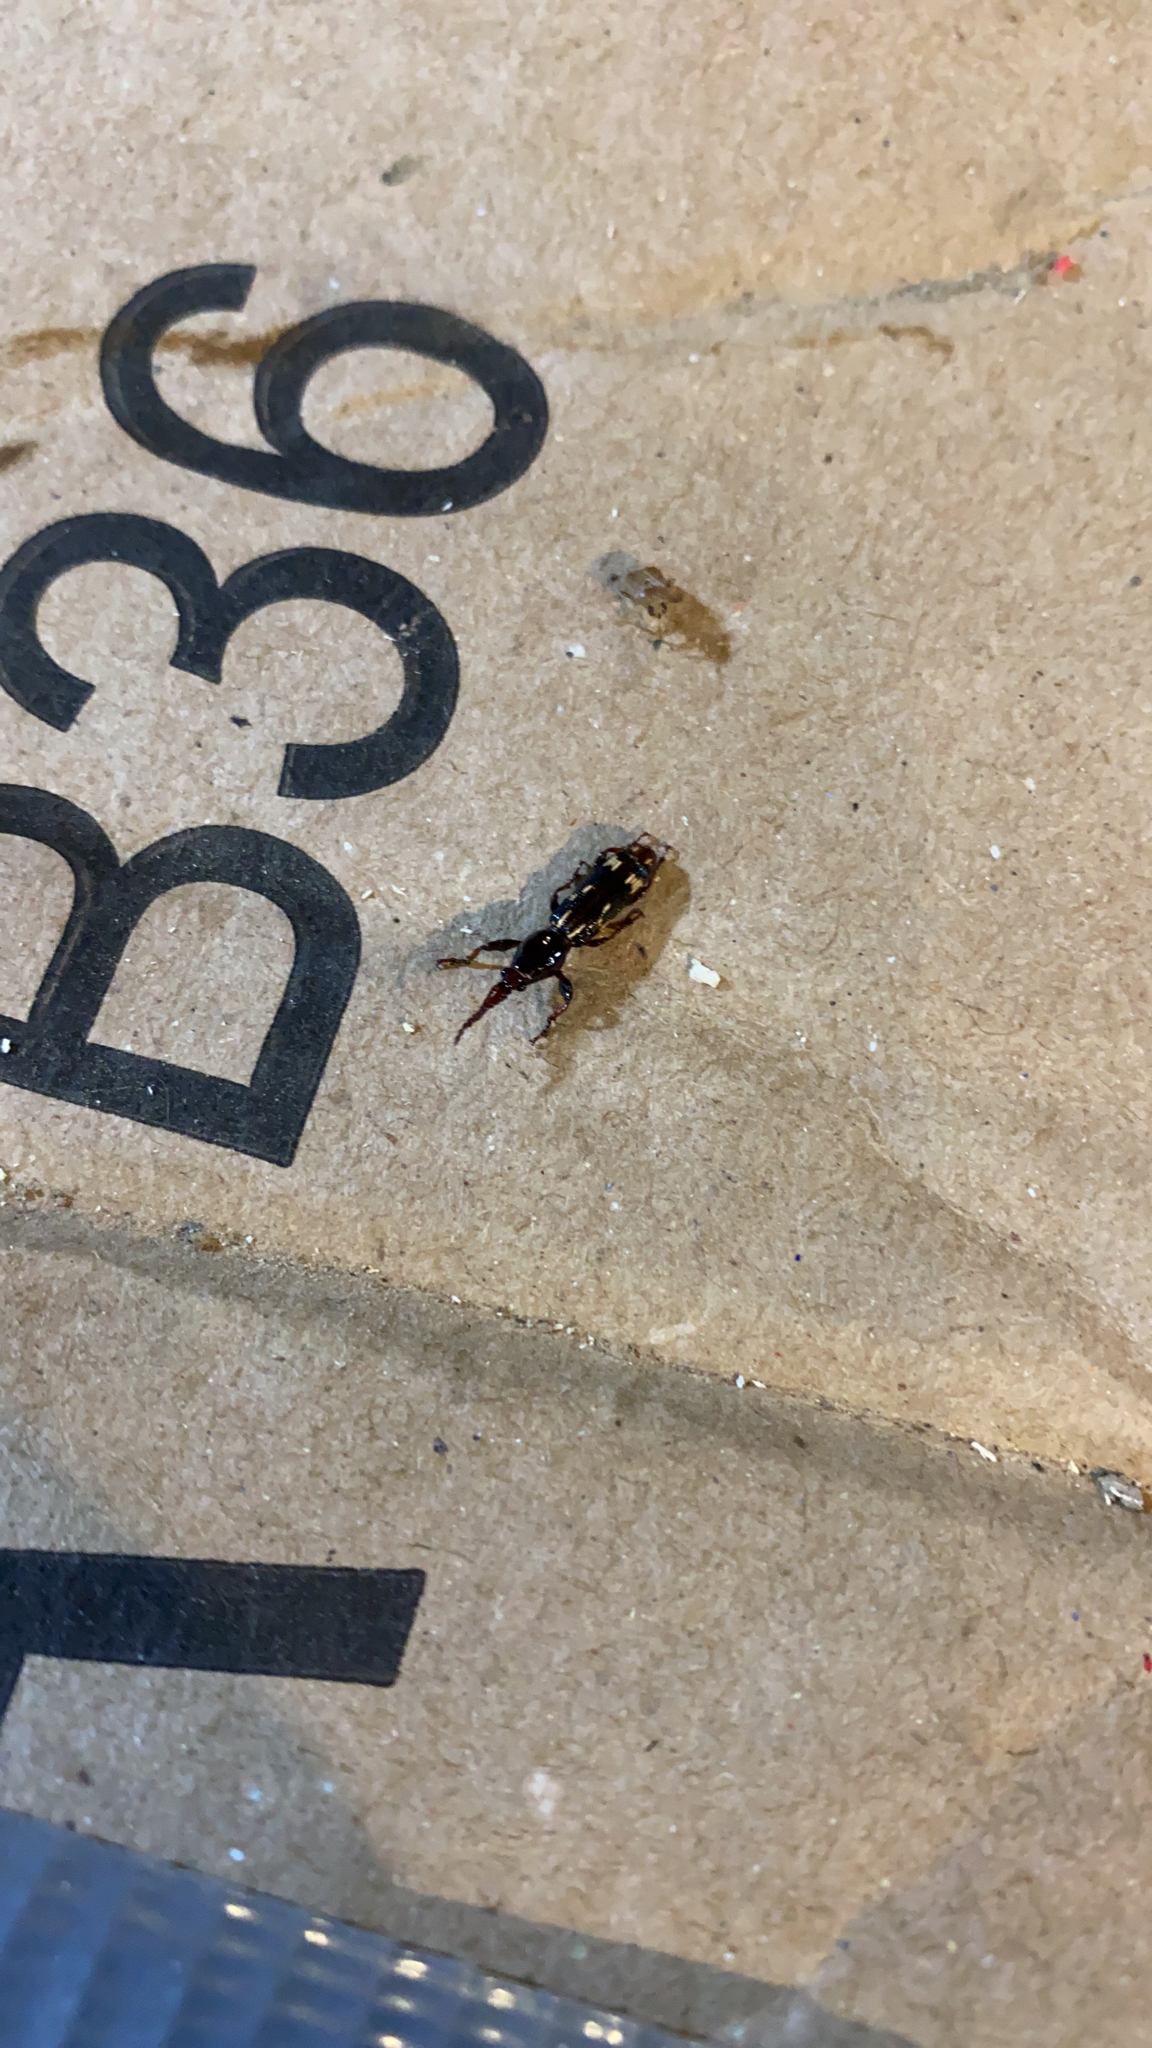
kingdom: Animalia
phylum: Arthropoda
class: Insecta
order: Coleoptera
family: Brentidae
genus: Arrenodes
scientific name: Arrenodes minutus
